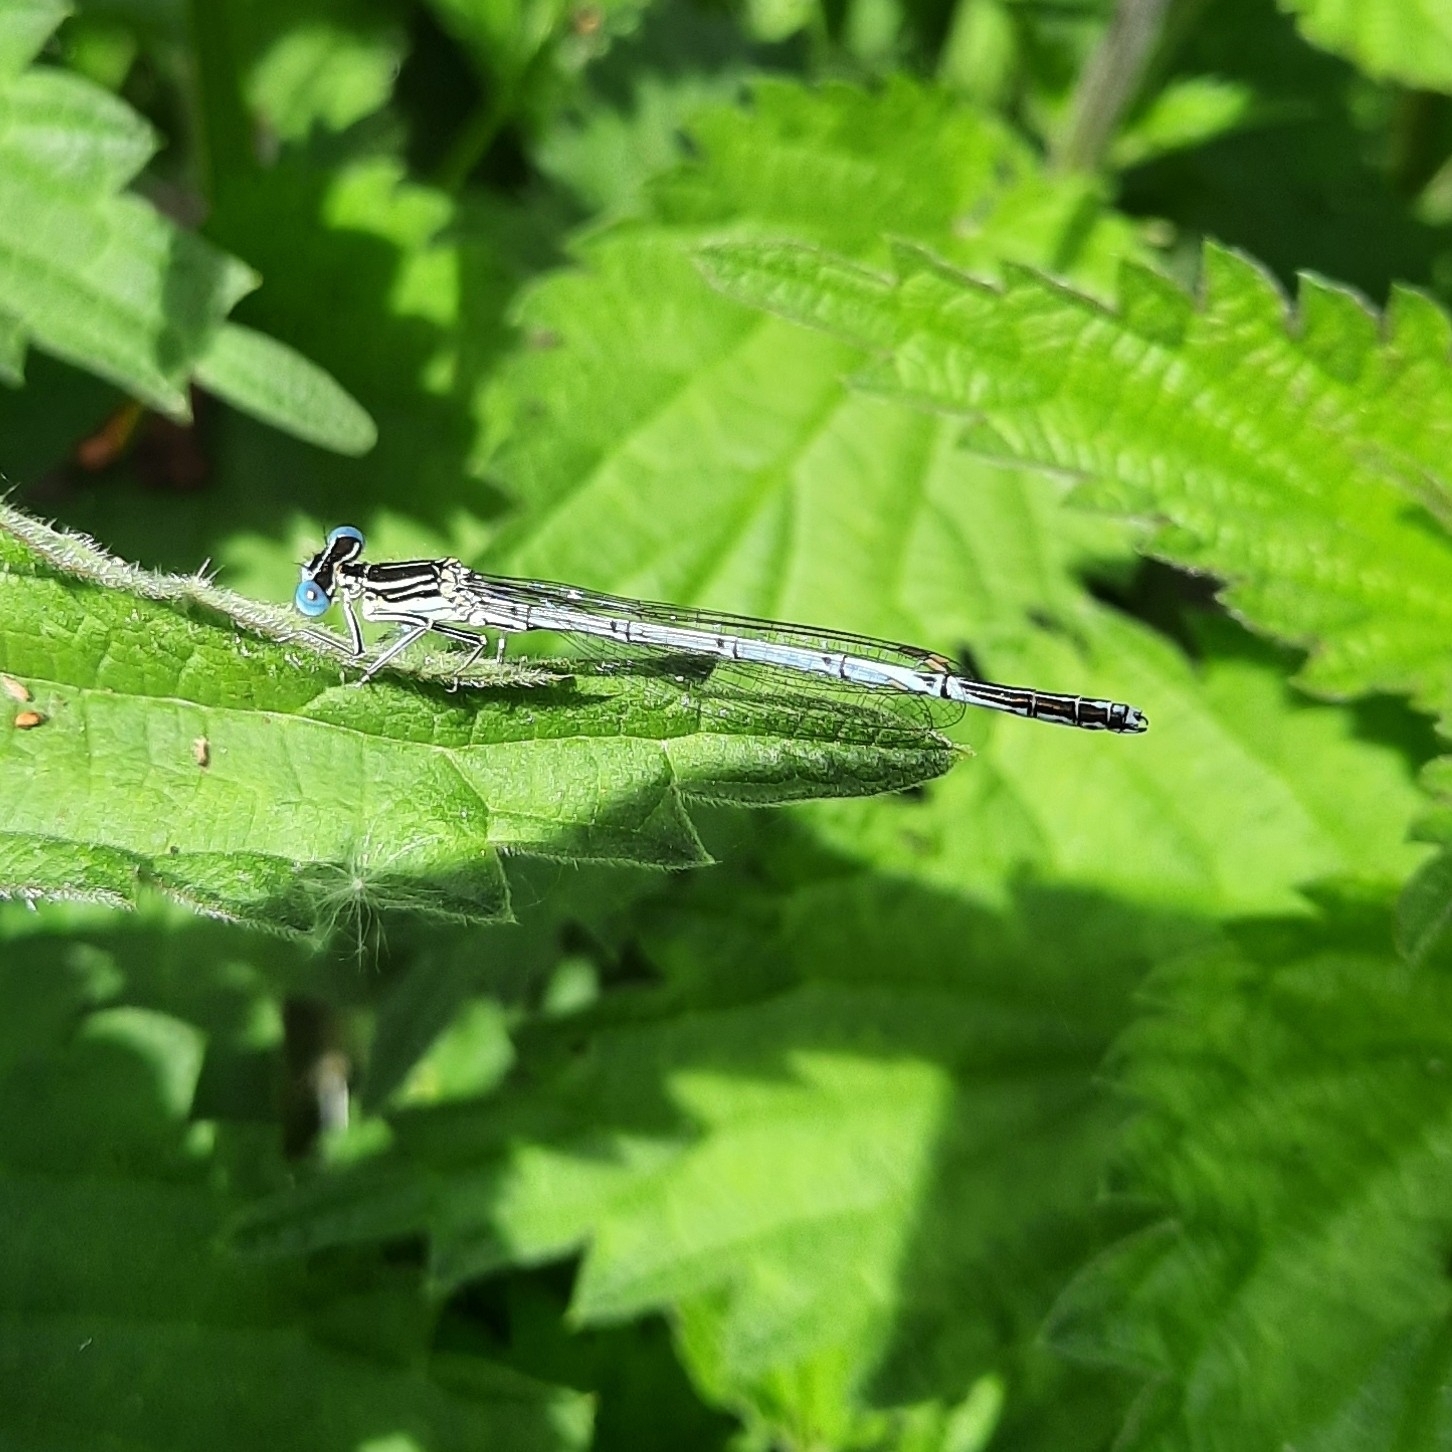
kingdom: Animalia
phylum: Arthropoda
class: Insecta
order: Odonata
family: Platycnemididae
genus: Platycnemis
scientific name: Platycnemis pennipes
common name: White-legged damselfly
